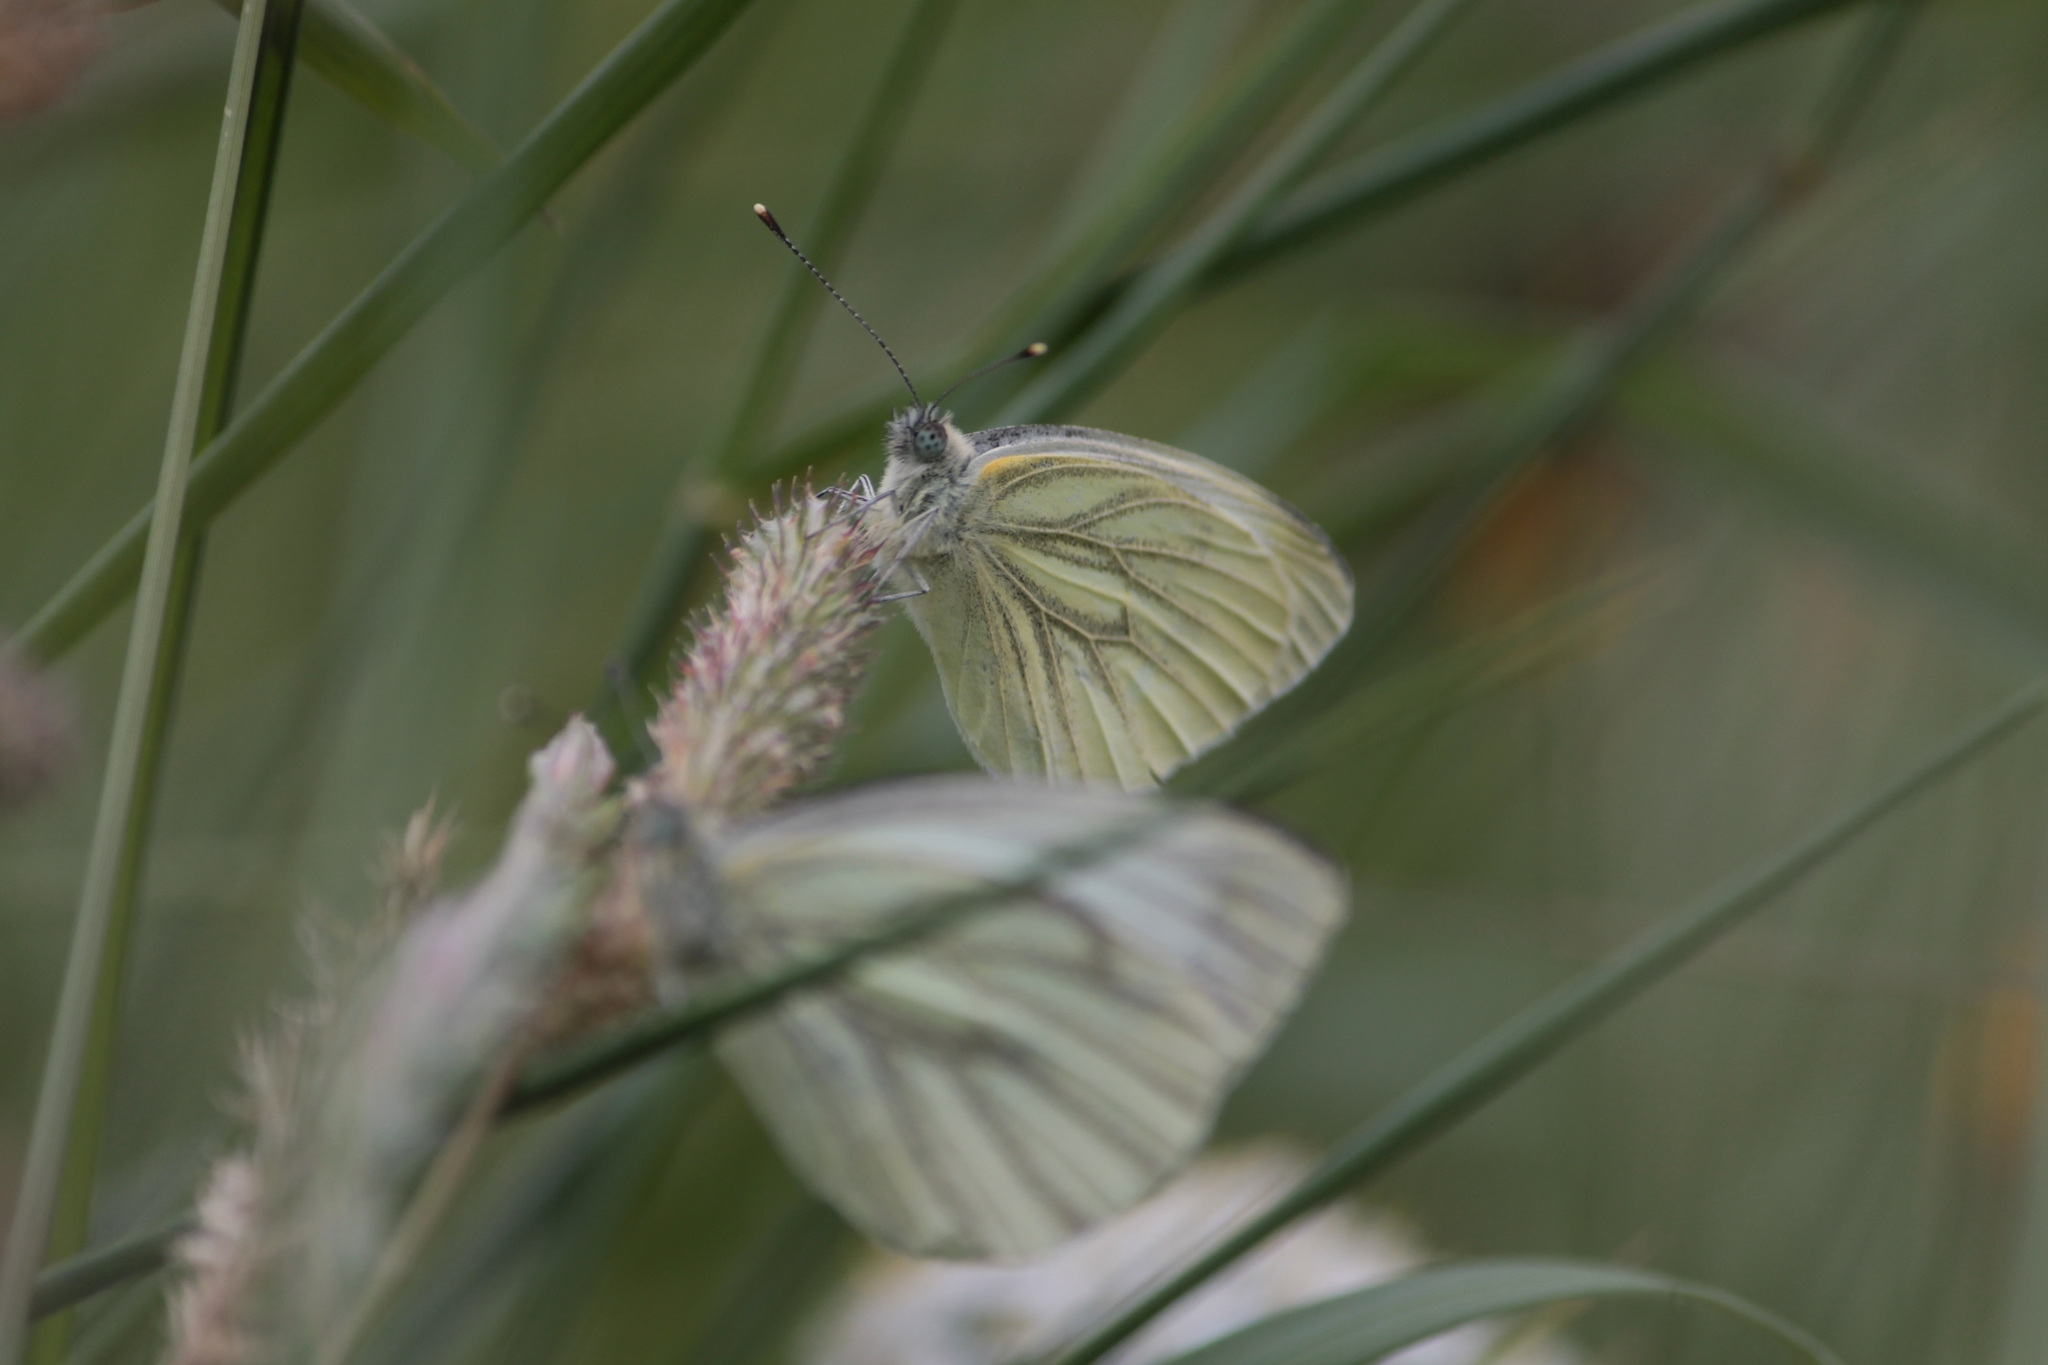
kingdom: Animalia
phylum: Arthropoda
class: Insecta
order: Lepidoptera
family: Pieridae
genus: Pieris
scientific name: Pieris napi
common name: Green-veined white
